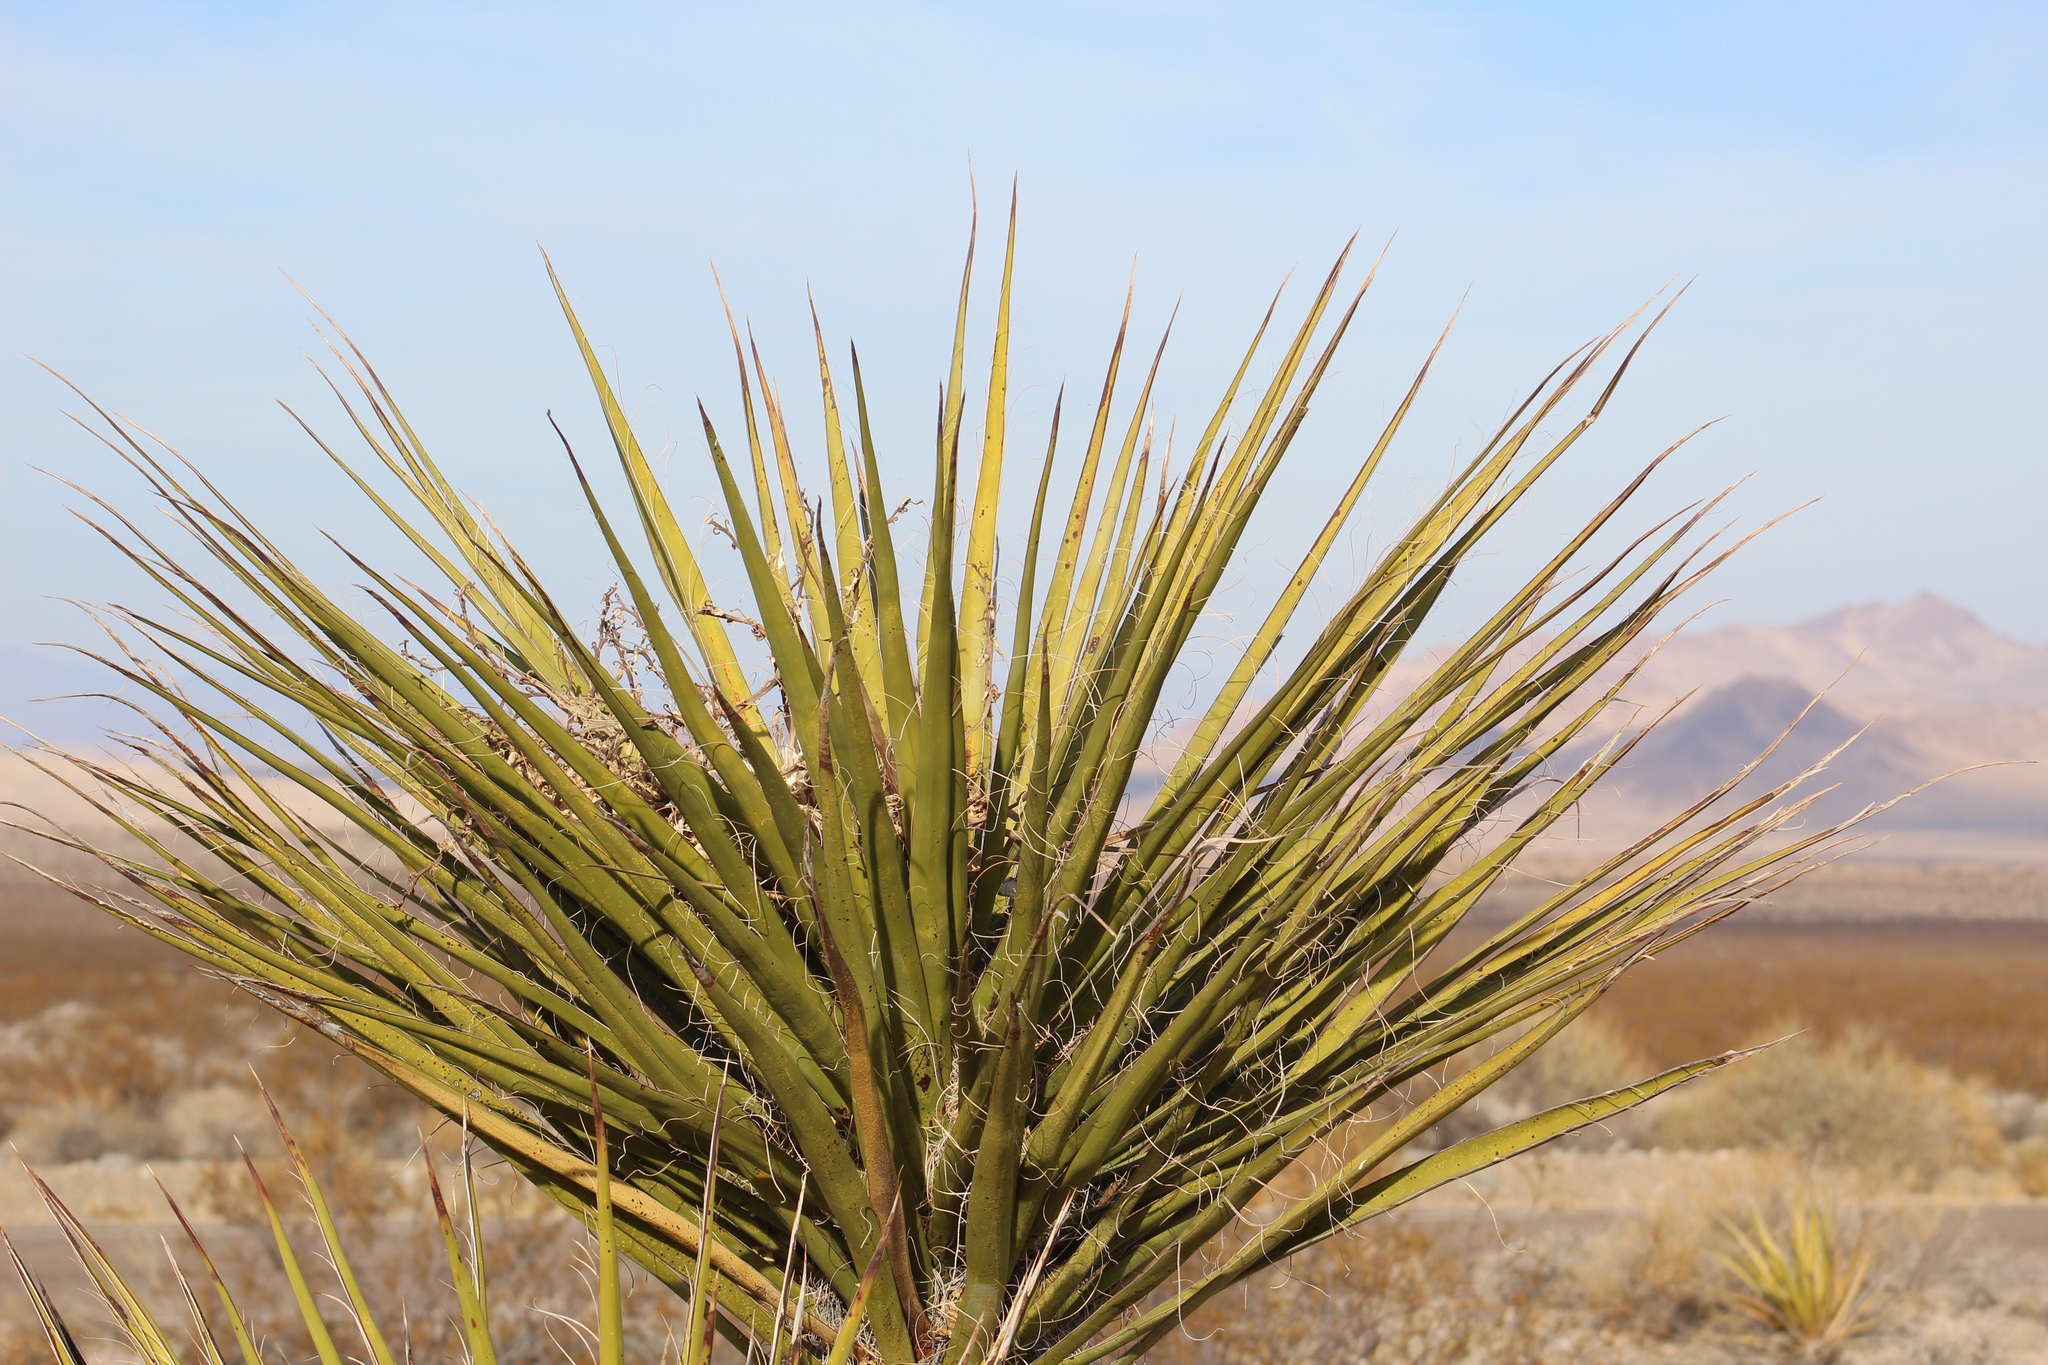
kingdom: Plantae
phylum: Tracheophyta
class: Liliopsida
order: Asparagales
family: Asparagaceae
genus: Yucca
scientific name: Yucca schidigera
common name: Mojave yucca
